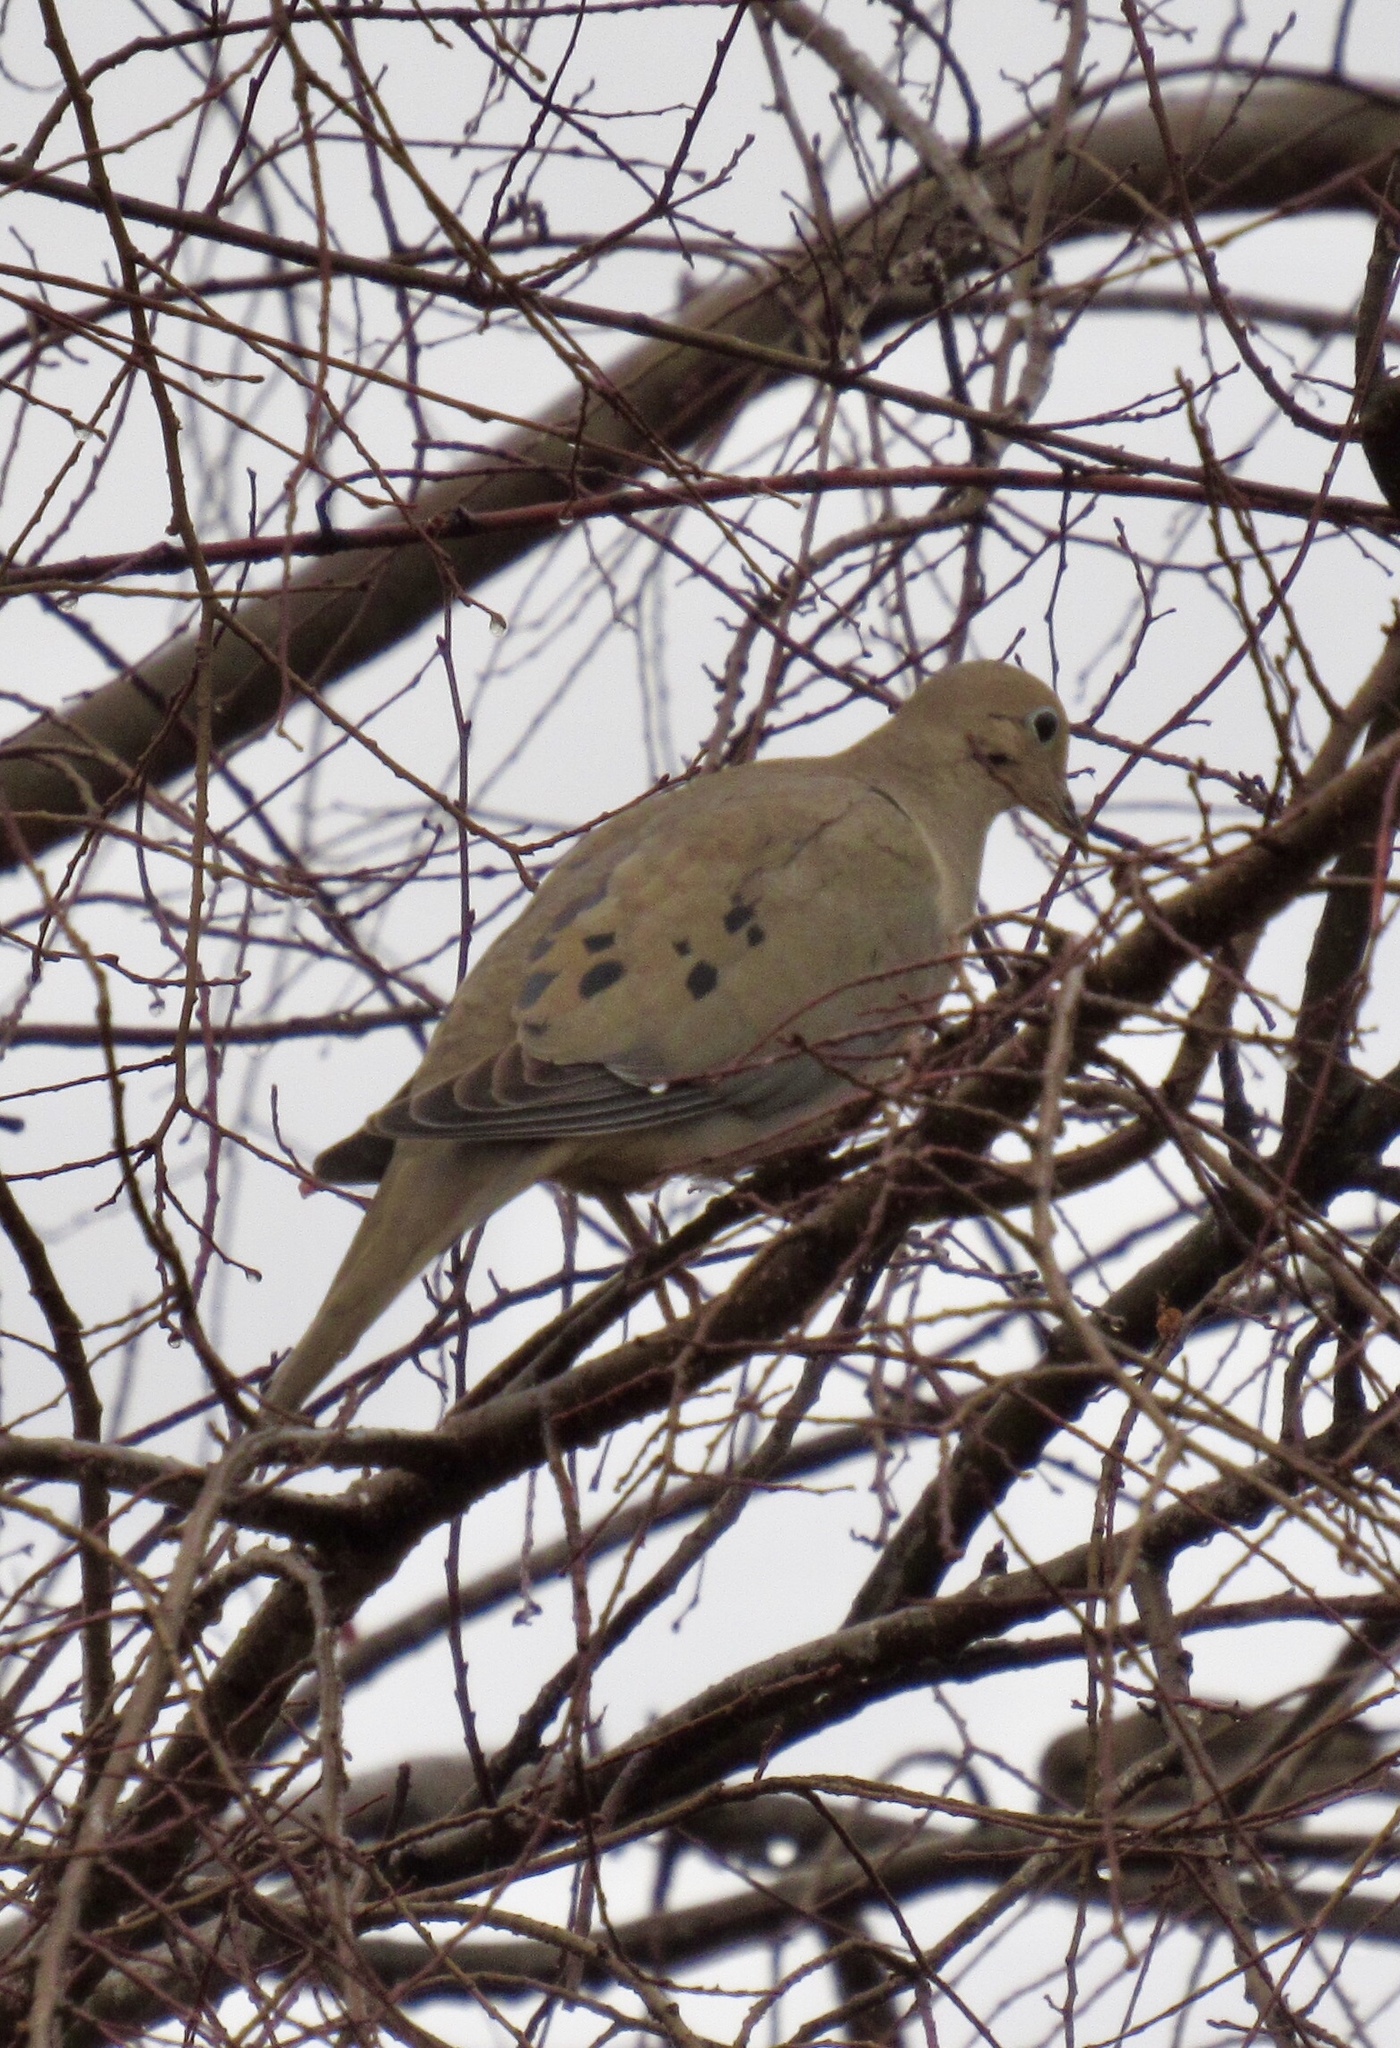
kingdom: Animalia
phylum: Chordata
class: Aves
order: Columbiformes
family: Columbidae
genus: Zenaida
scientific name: Zenaida macroura
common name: Mourning dove
